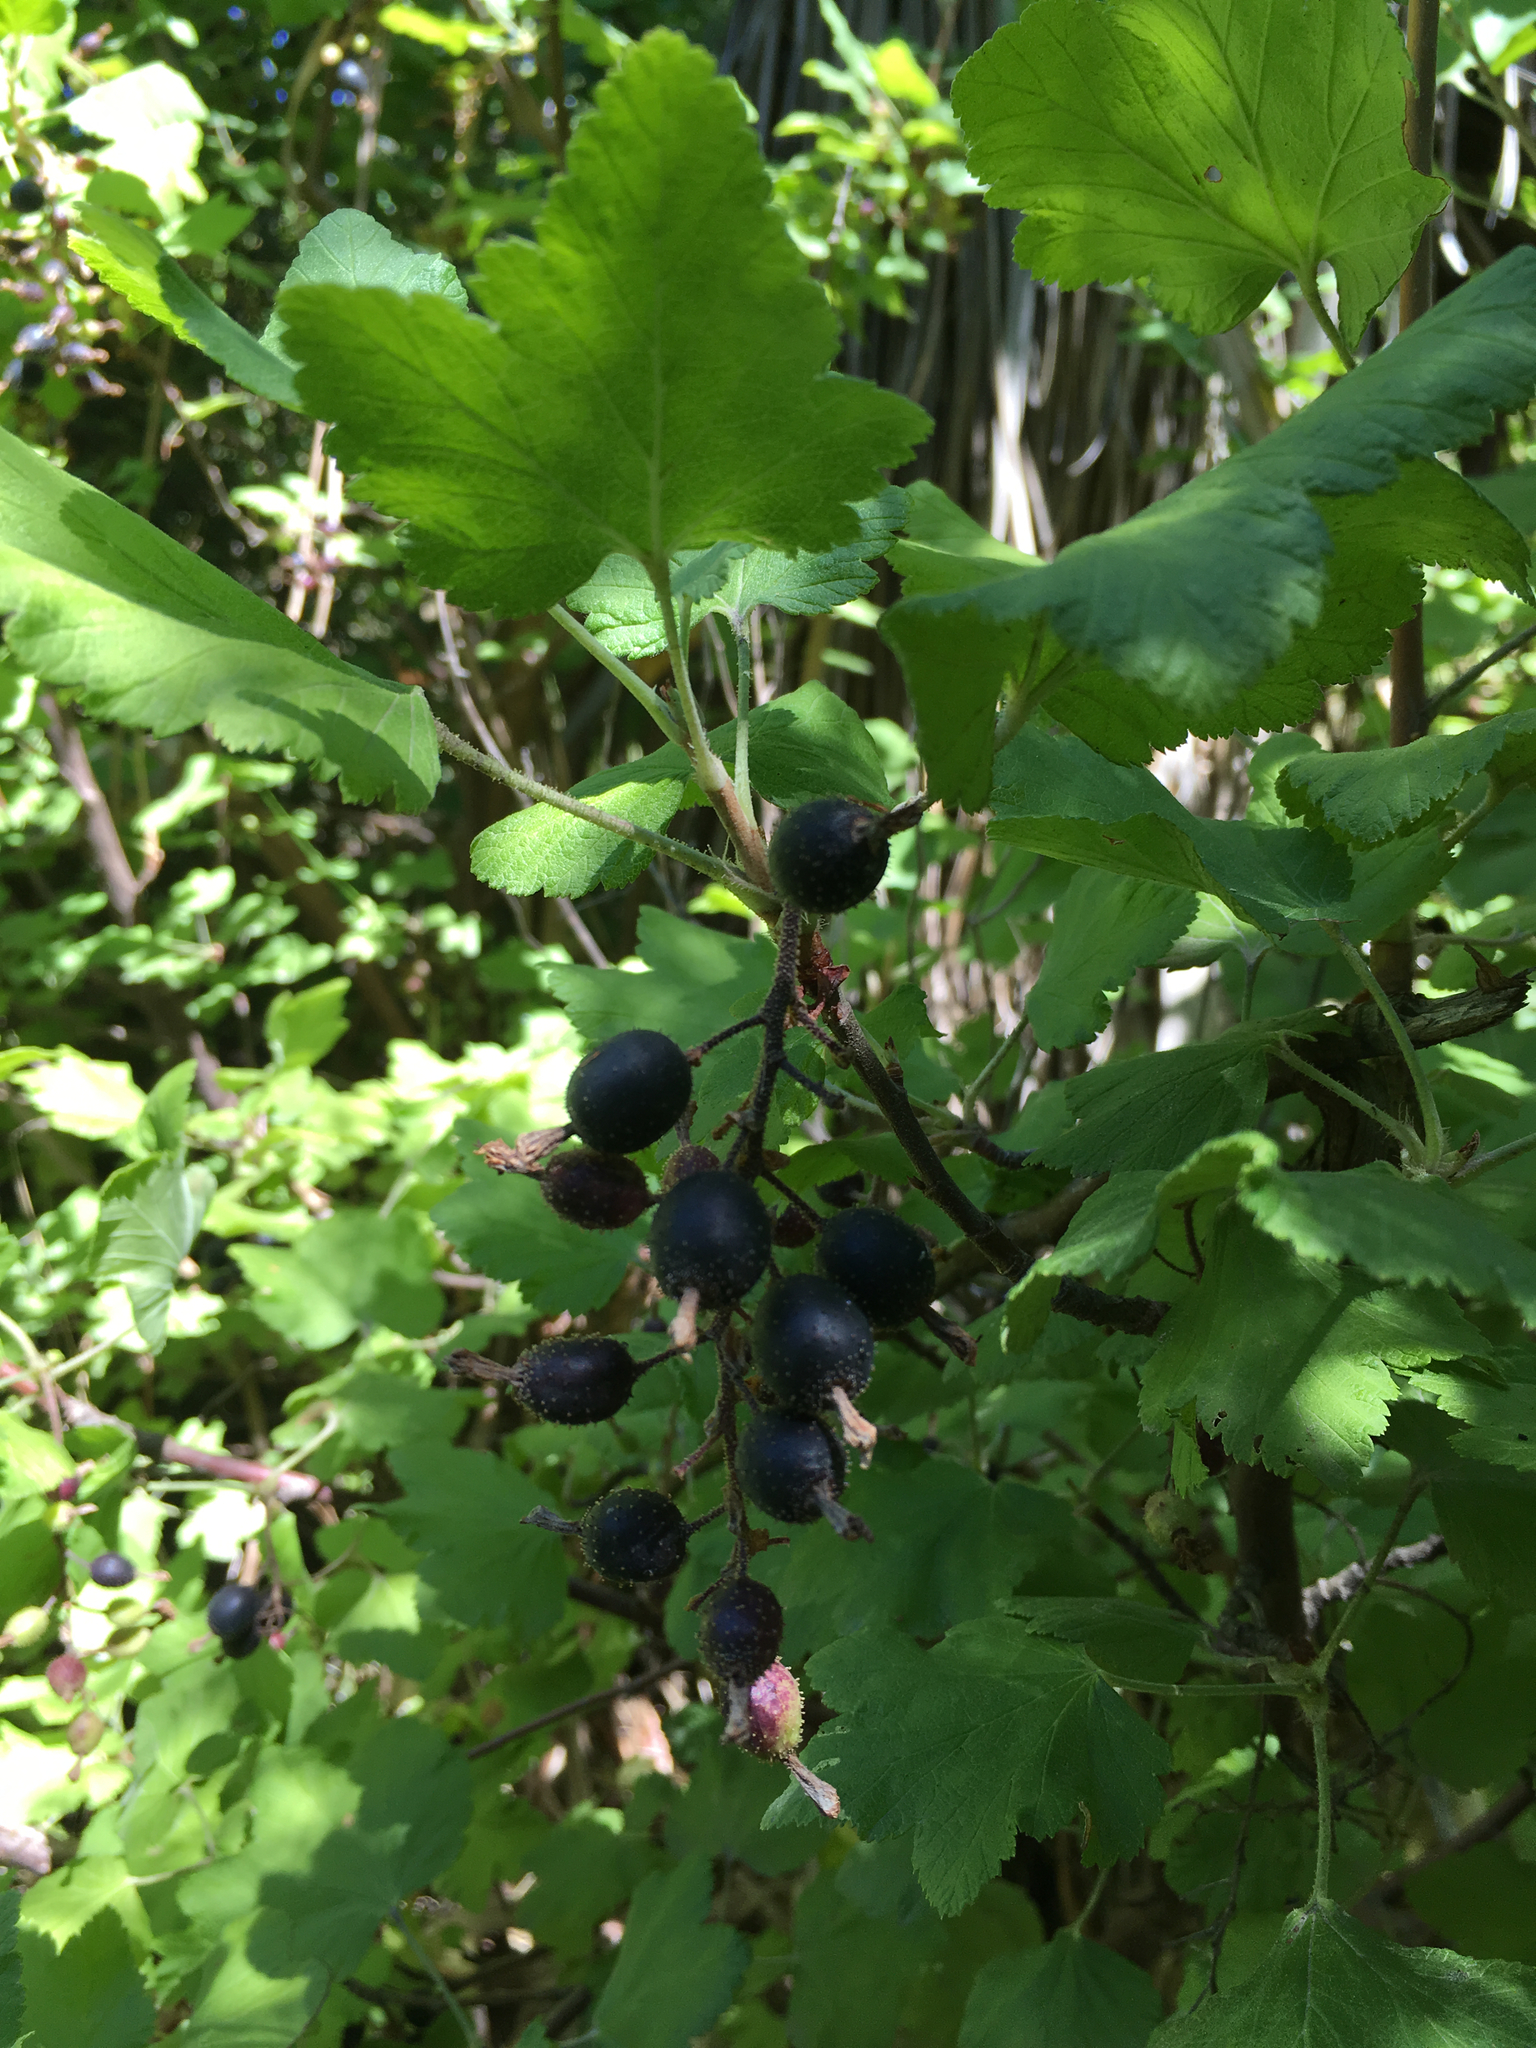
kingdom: Plantae
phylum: Tracheophyta
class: Magnoliopsida
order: Saxifragales
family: Grossulariaceae
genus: Ribes
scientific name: Ribes sanguineum
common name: Flowering currant
